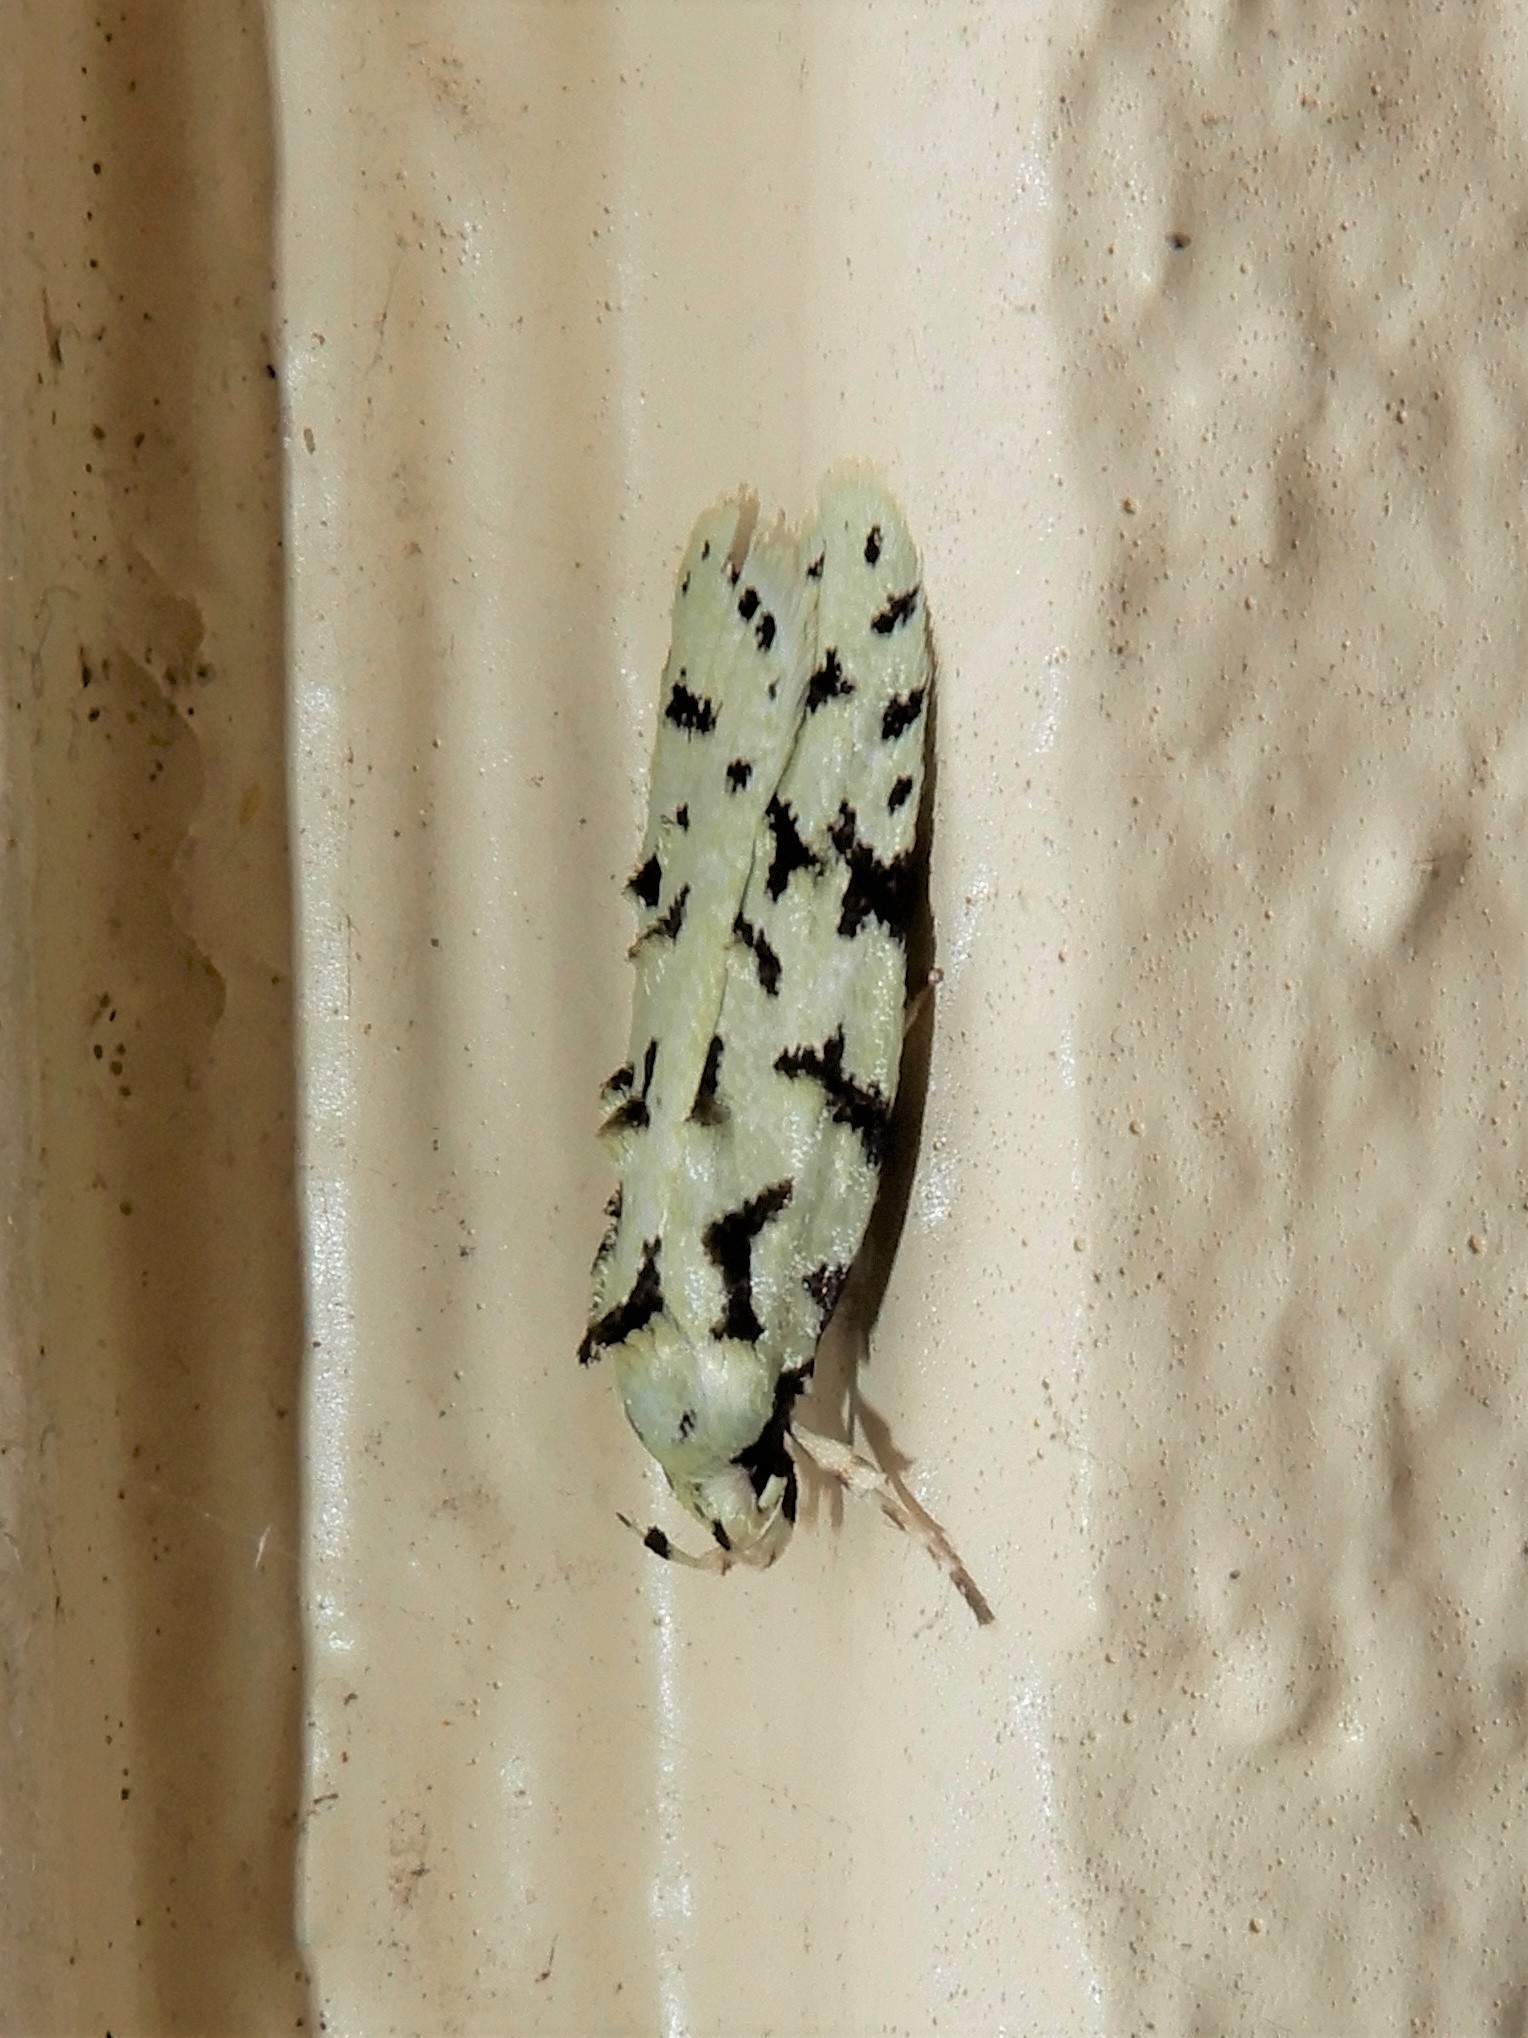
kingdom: Animalia
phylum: Arthropoda
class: Insecta
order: Lepidoptera
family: Oecophoridae
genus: Izatha
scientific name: Izatha peroneanella
